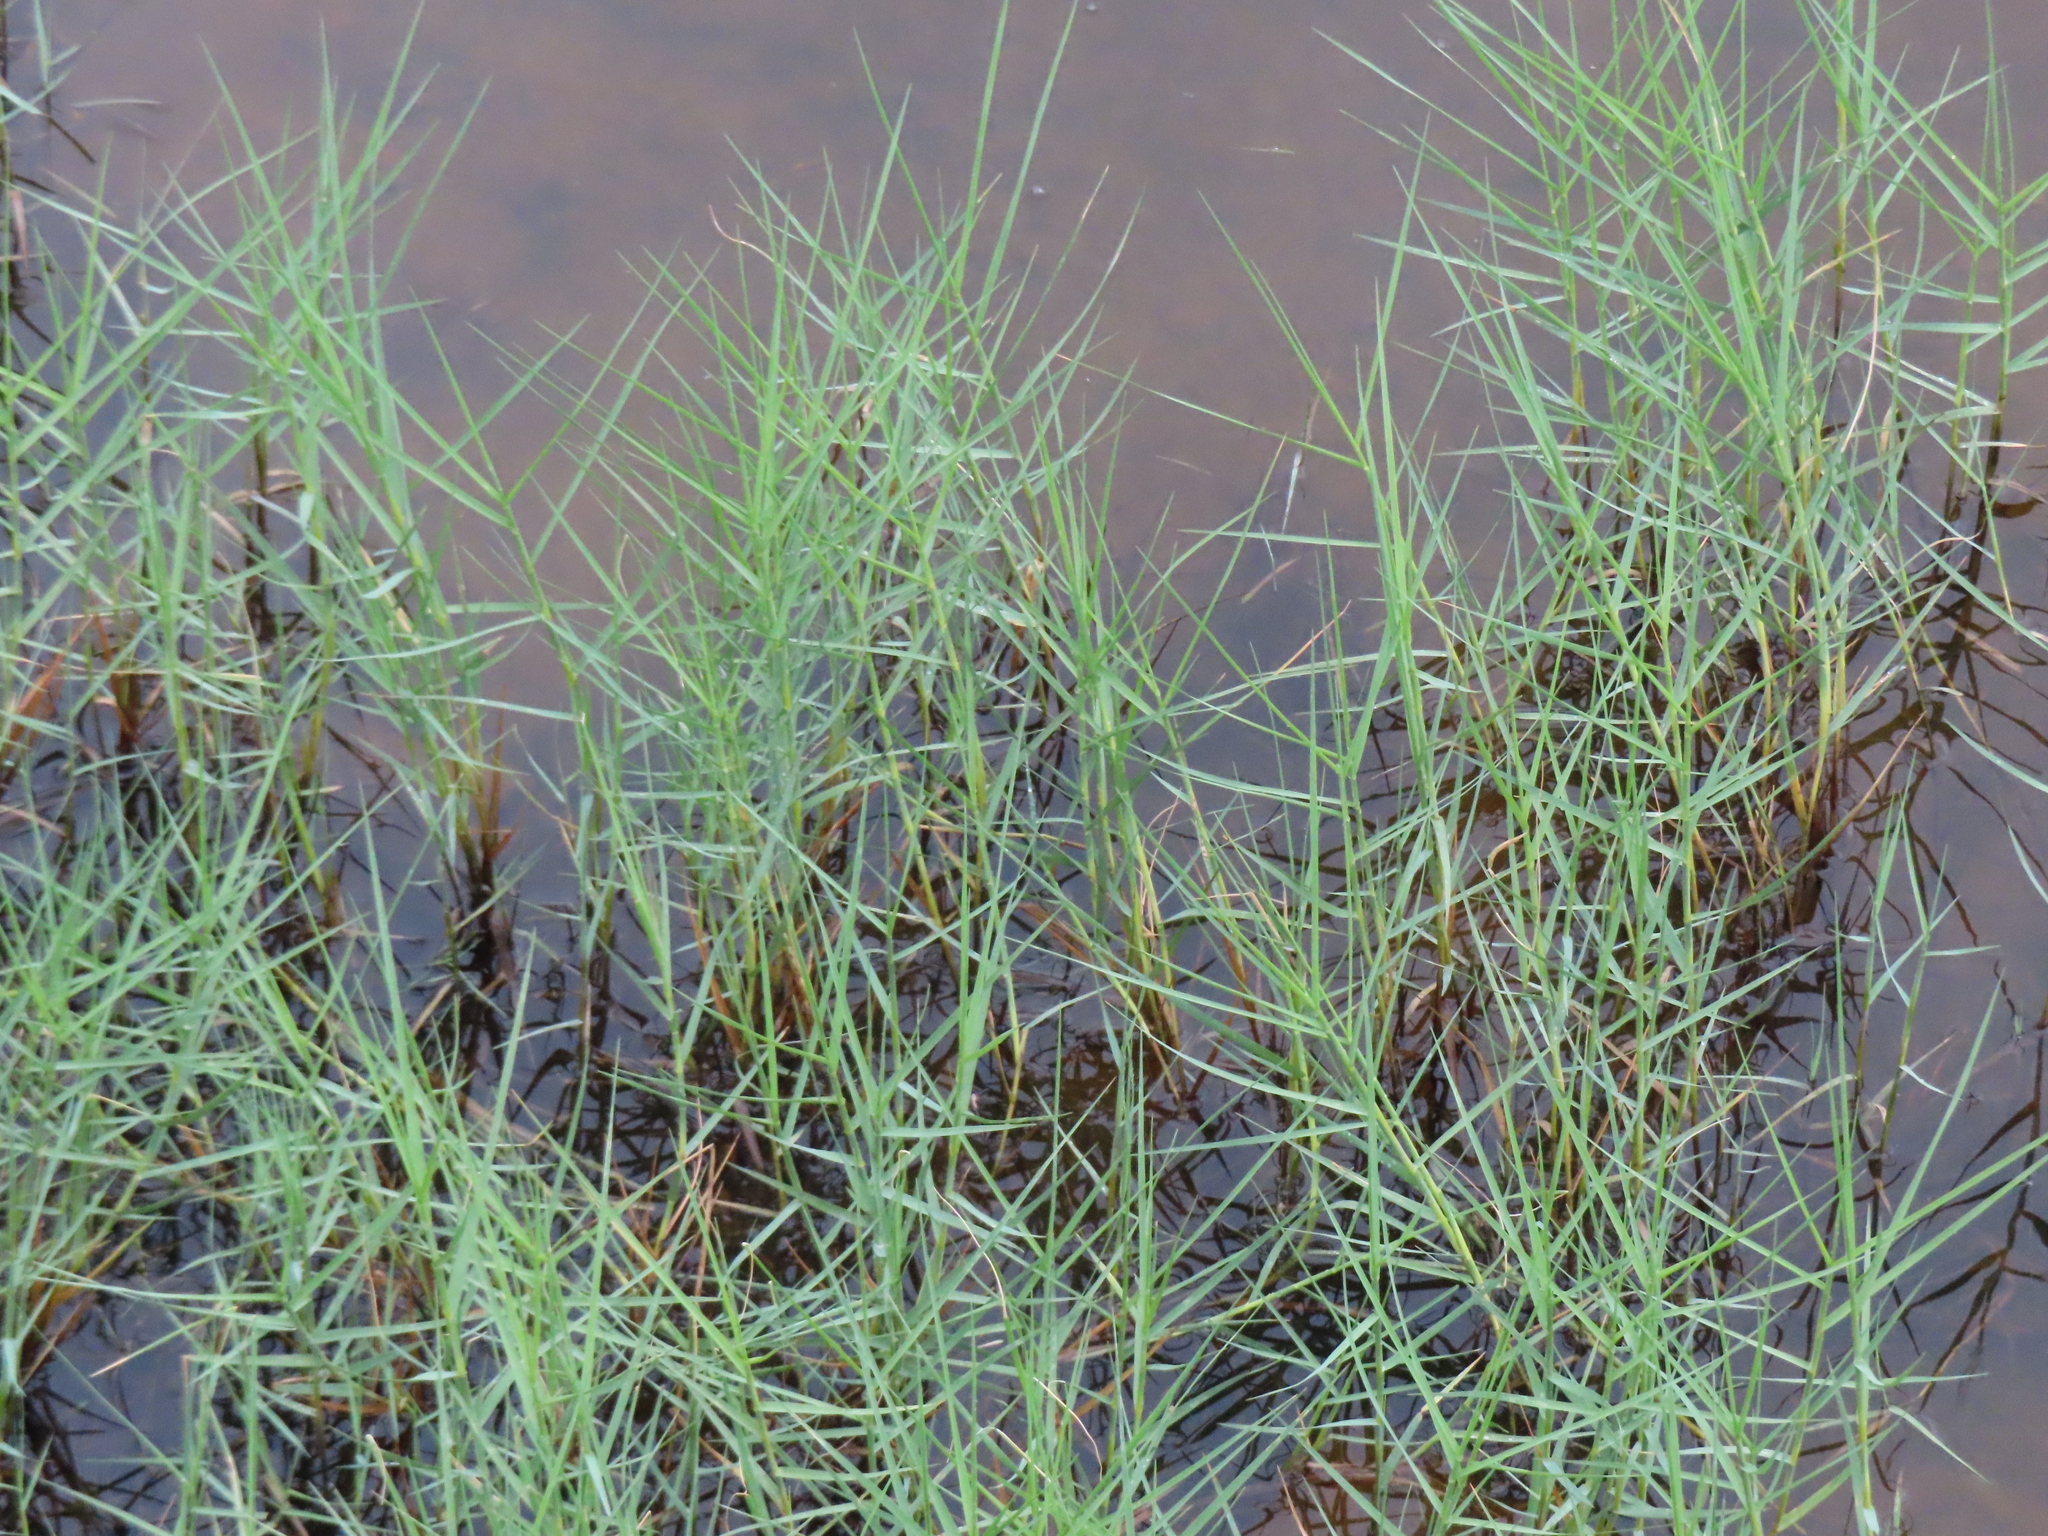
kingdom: Plantae
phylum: Tracheophyta
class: Liliopsida
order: Poales
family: Poaceae
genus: Distichlis
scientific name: Distichlis spicata
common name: Saltgrass
